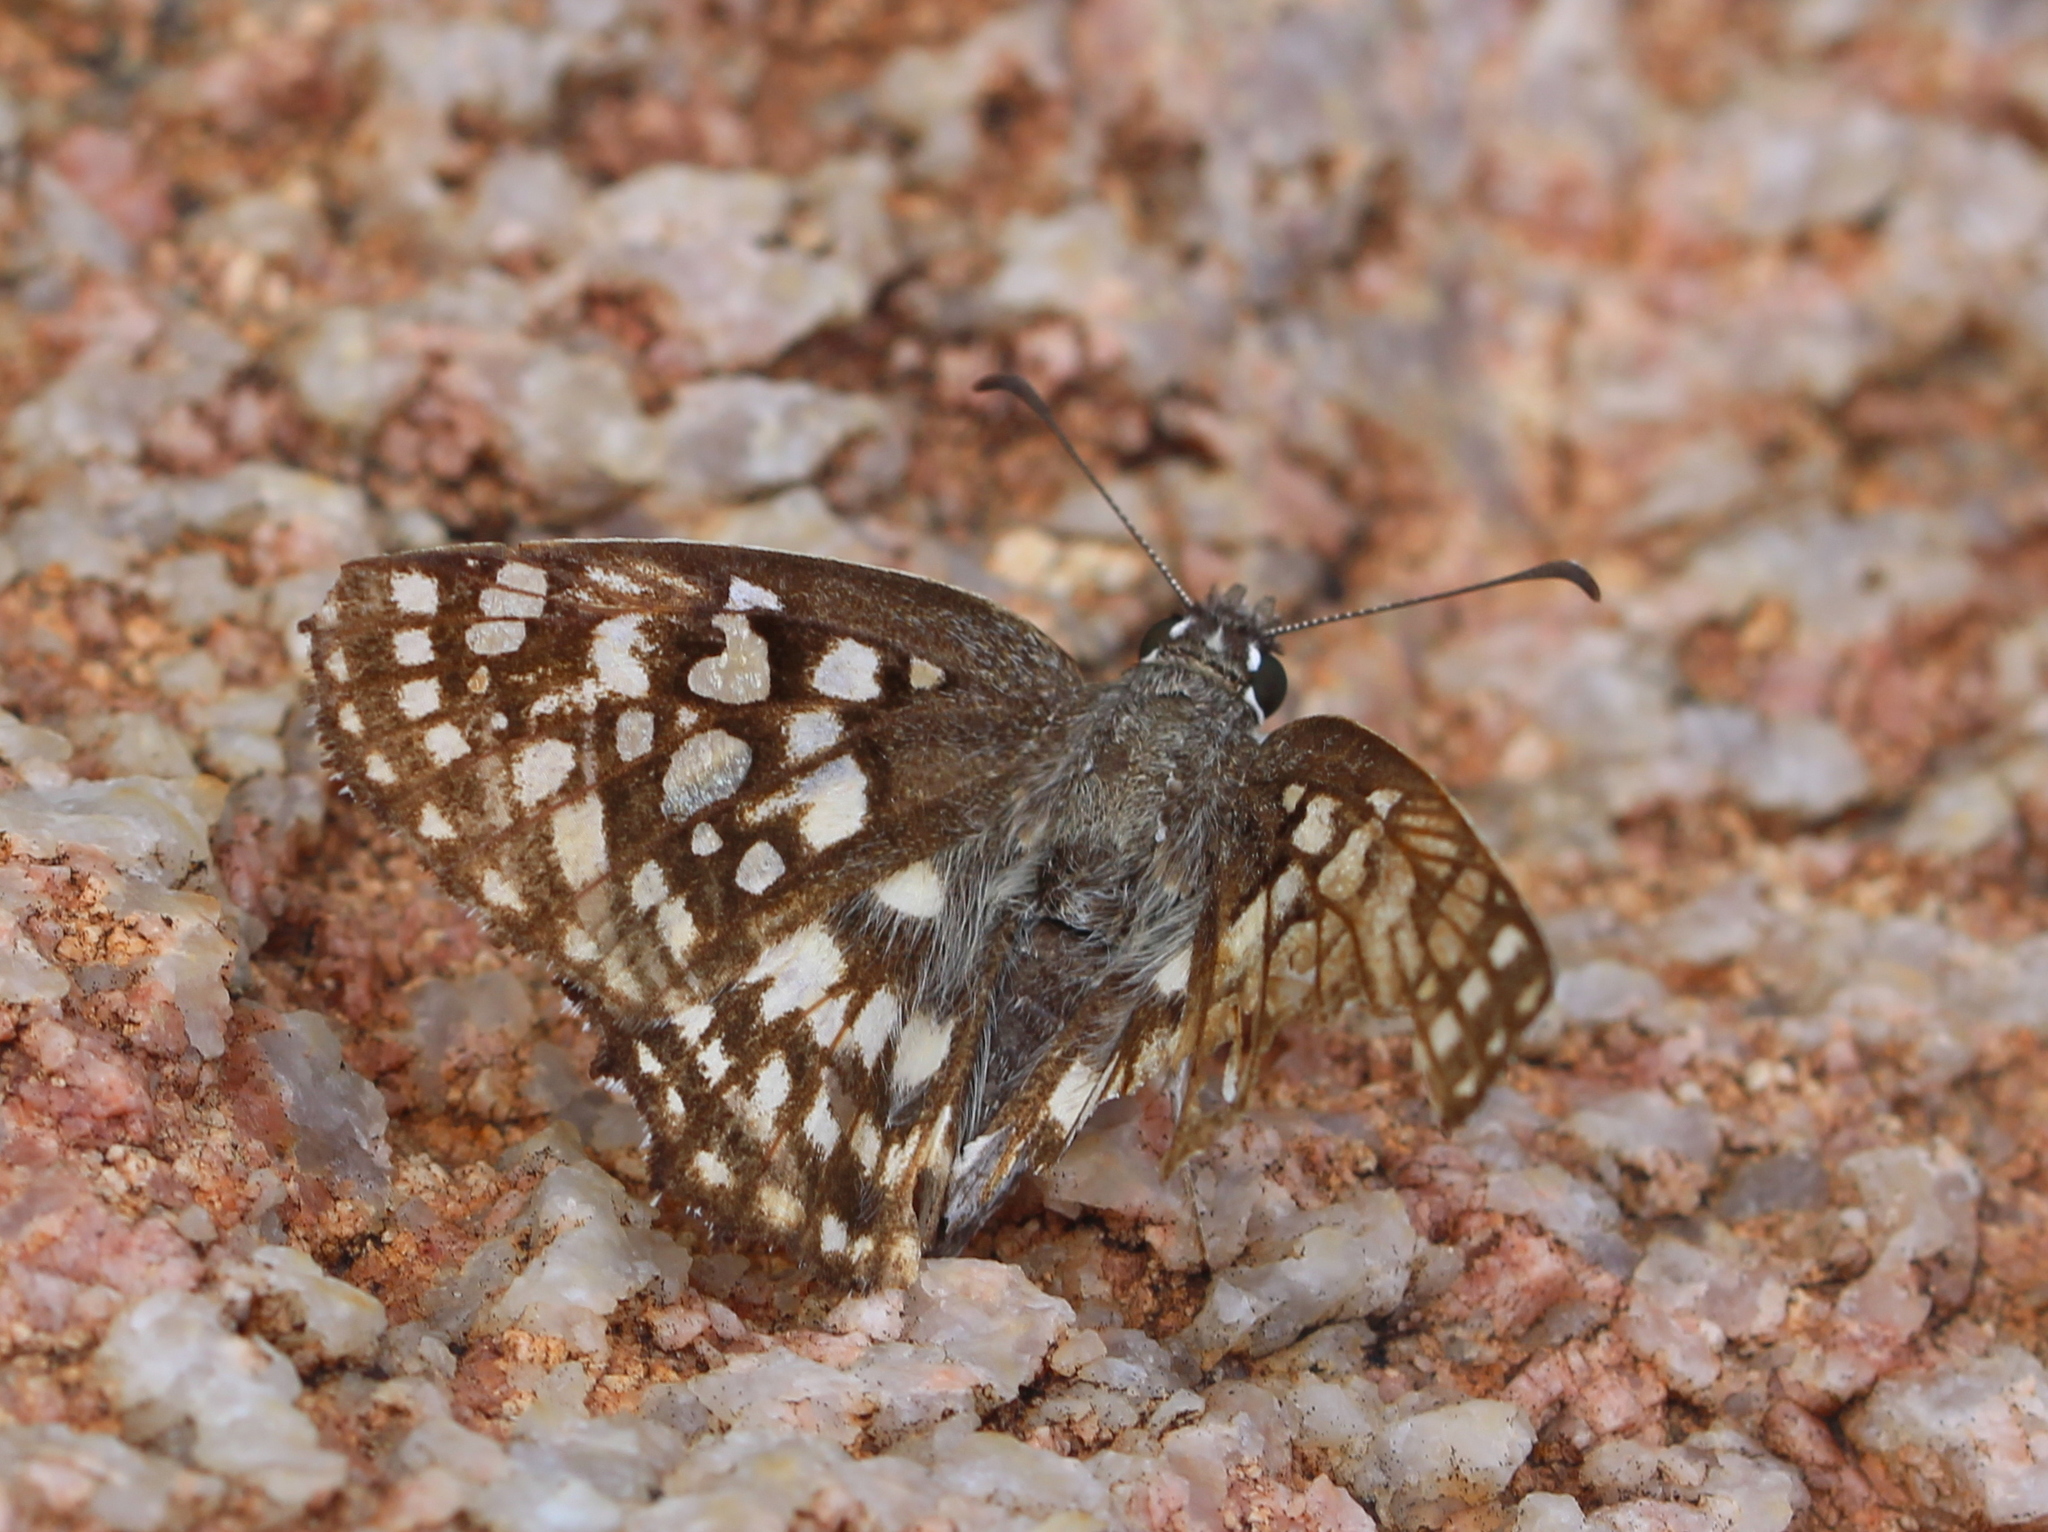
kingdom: Animalia
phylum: Arthropoda
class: Insecta
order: Lepidoptera
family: Hesperiidae
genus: Caprona
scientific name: Caprona agama
